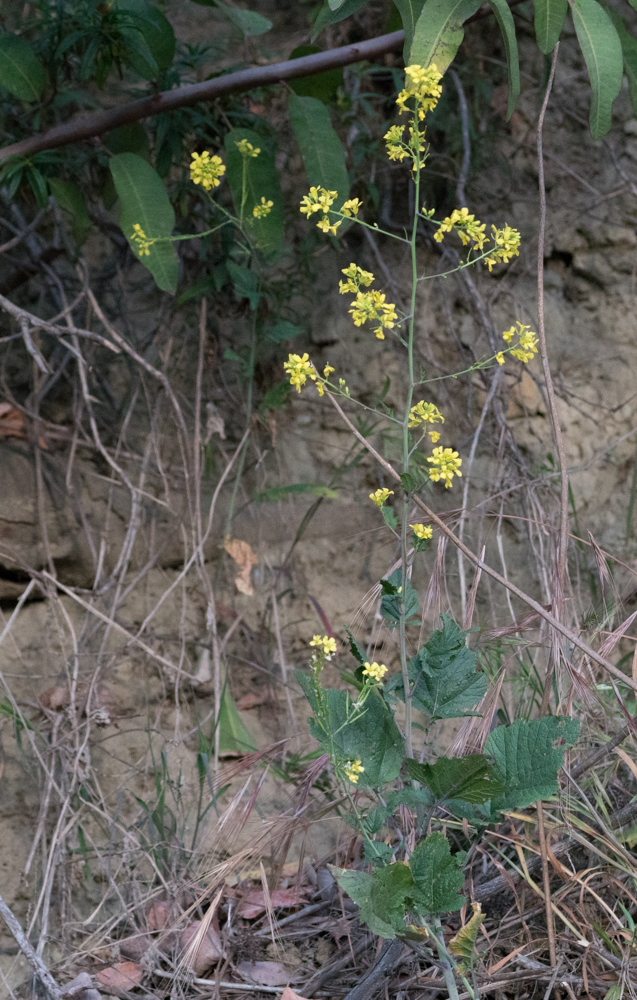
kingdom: Plantae
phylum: Tracheophyta
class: Magnoliopsida
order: Brassicales
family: Brassicaceae
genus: Brassica
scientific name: Brassica nigra
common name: Black mustard
